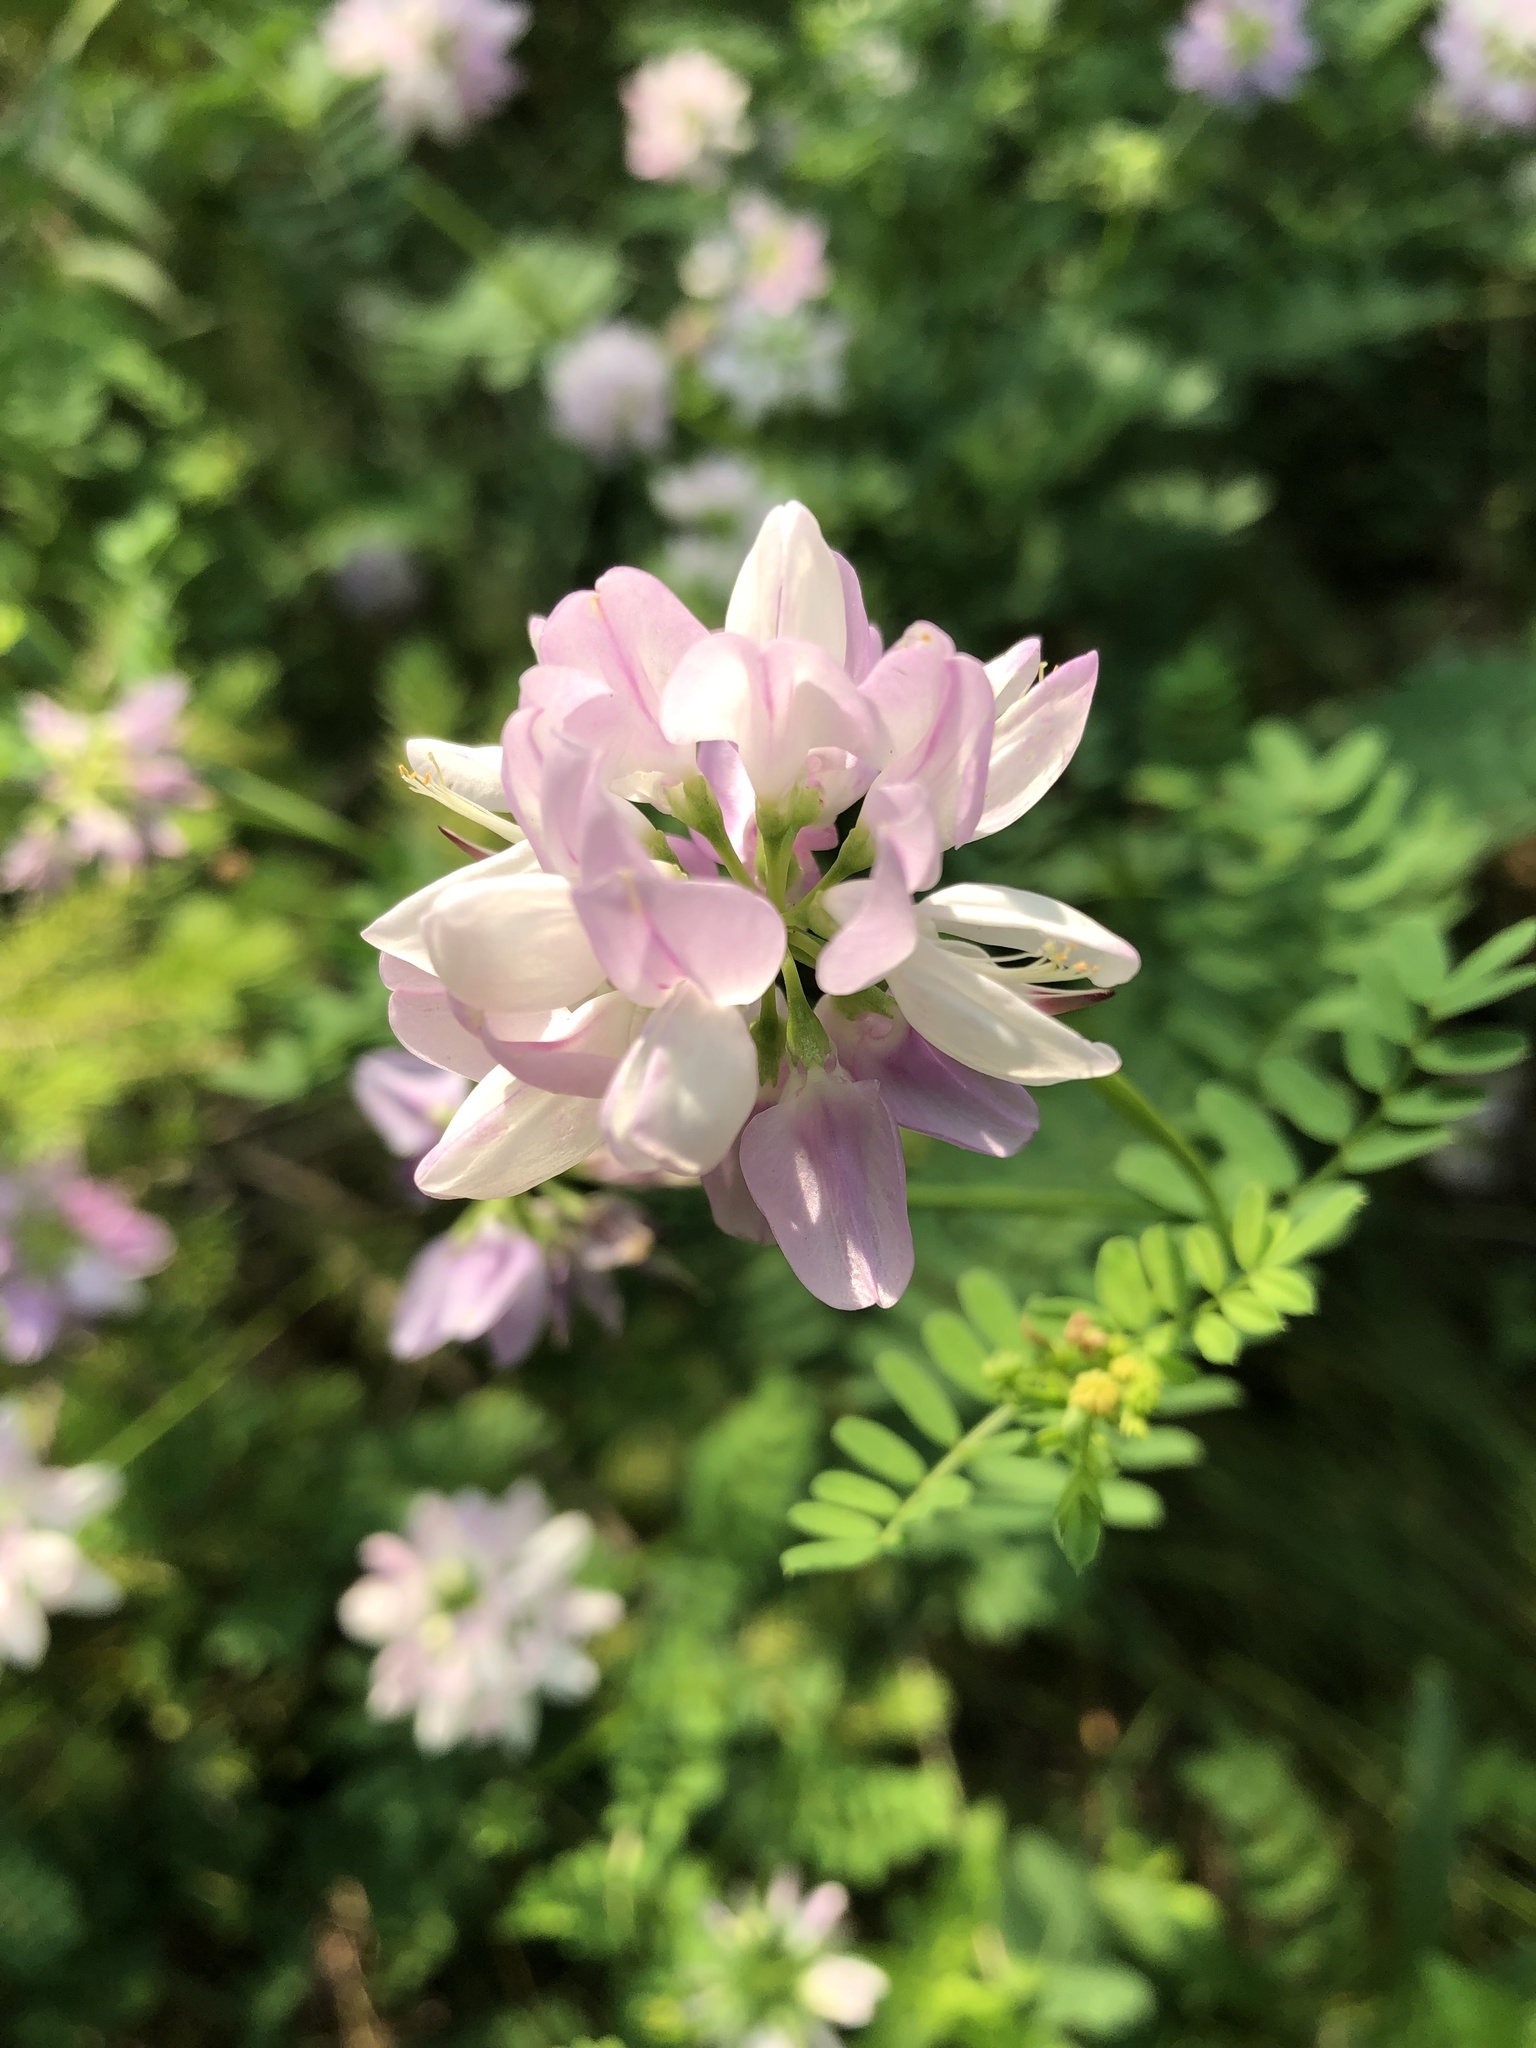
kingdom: Plantae
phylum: Tracheophyta
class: Magnoliopsida
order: Fabales
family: Fabaceae
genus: Coronilla
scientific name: Coronilla varia
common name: Crownvetch
